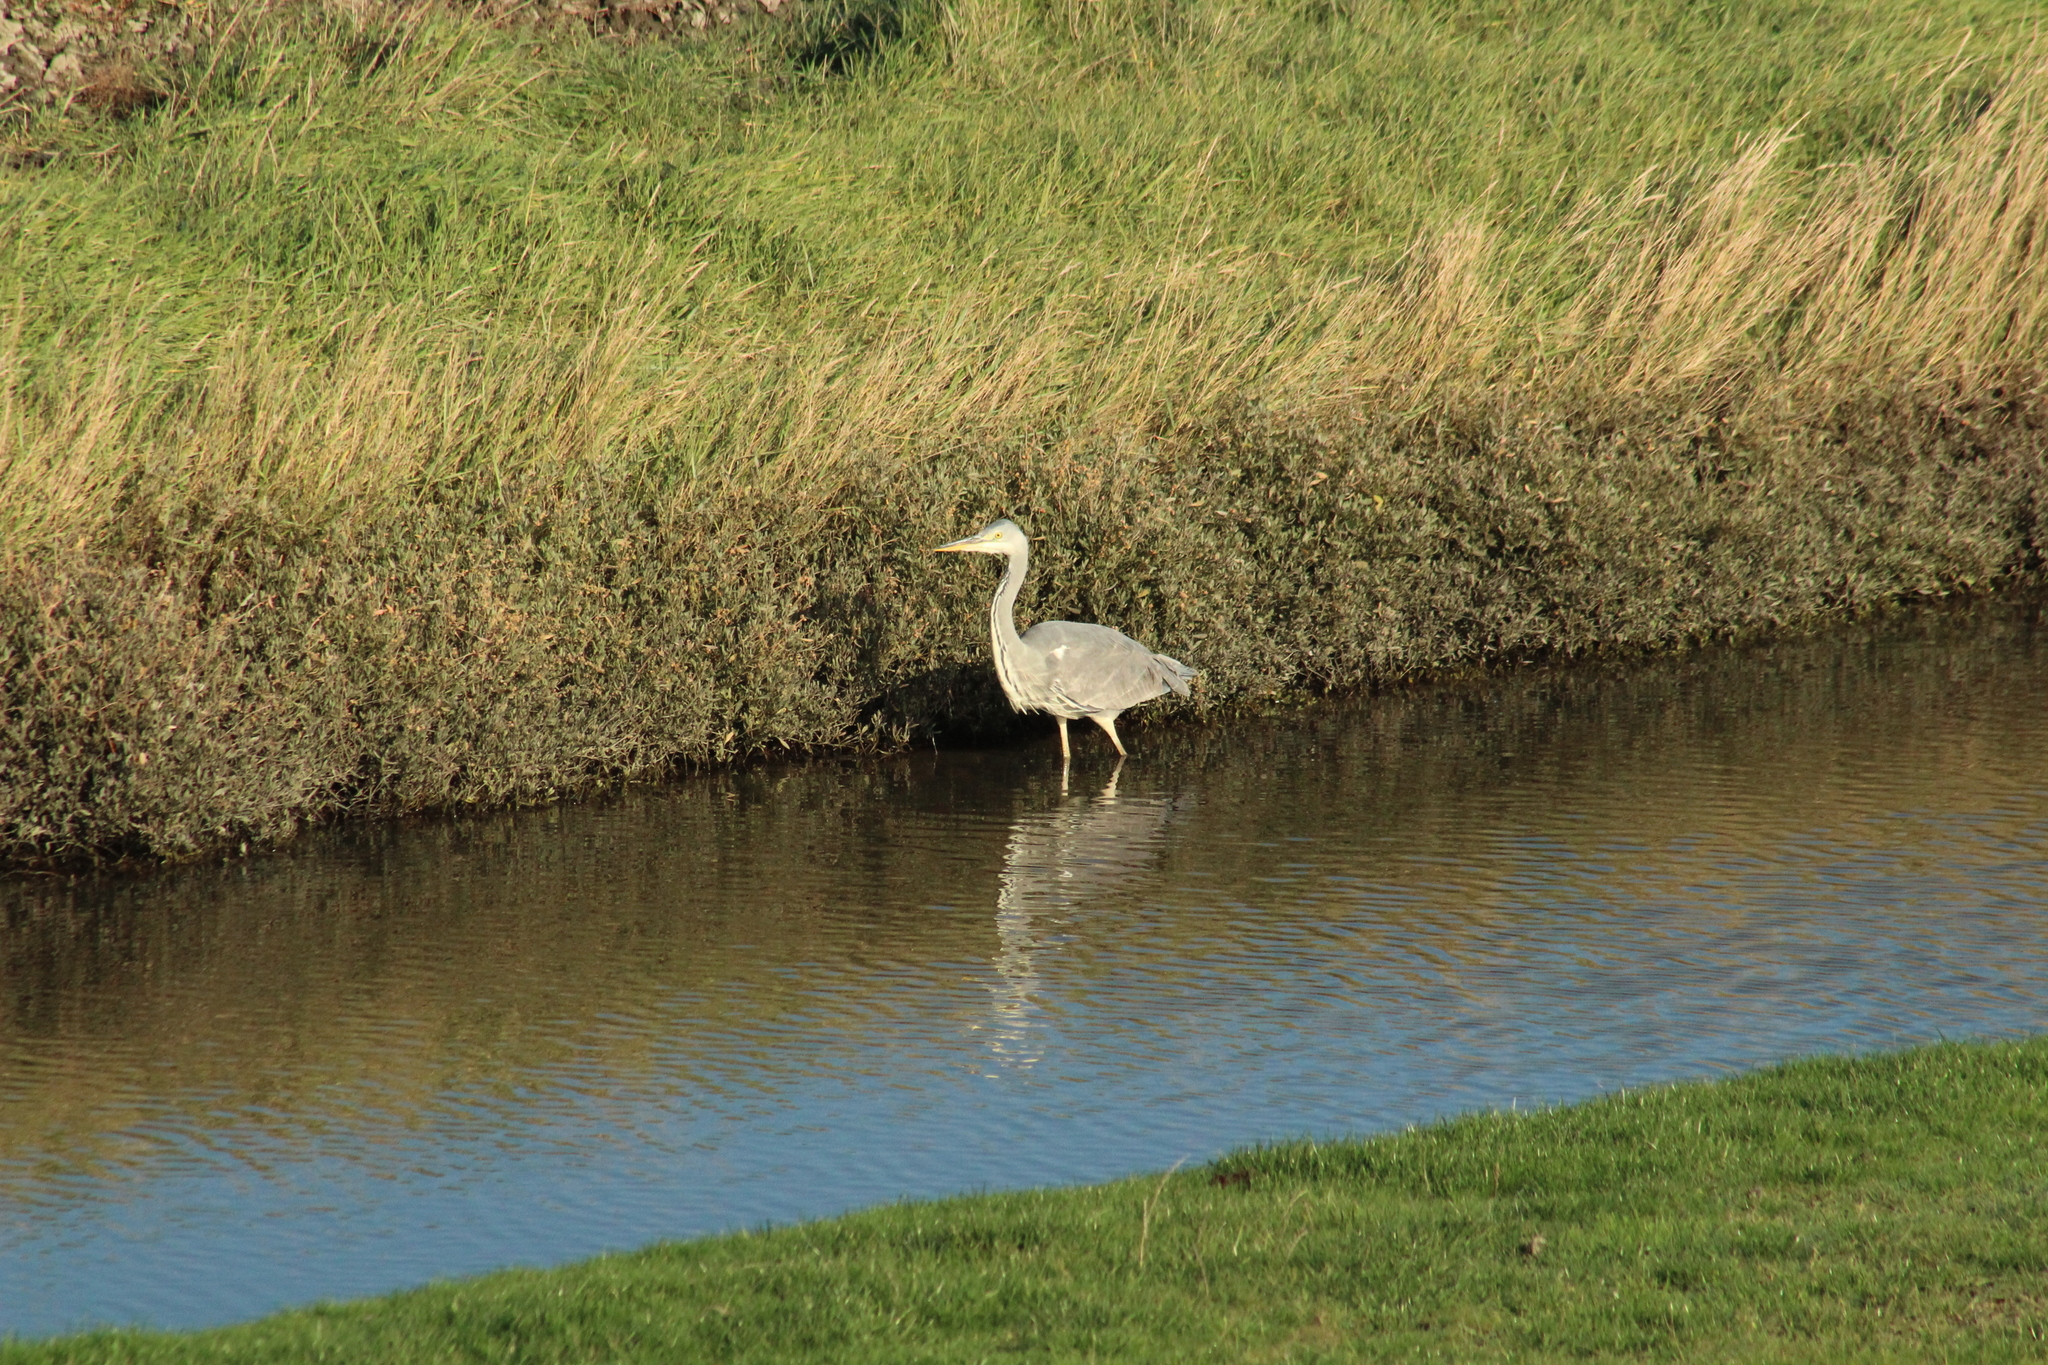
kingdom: Animalia
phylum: Chordata
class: Aves
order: Pelecaniformes
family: Ardeidae
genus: Ardea
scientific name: Ardea cinerea
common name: Grey heron
